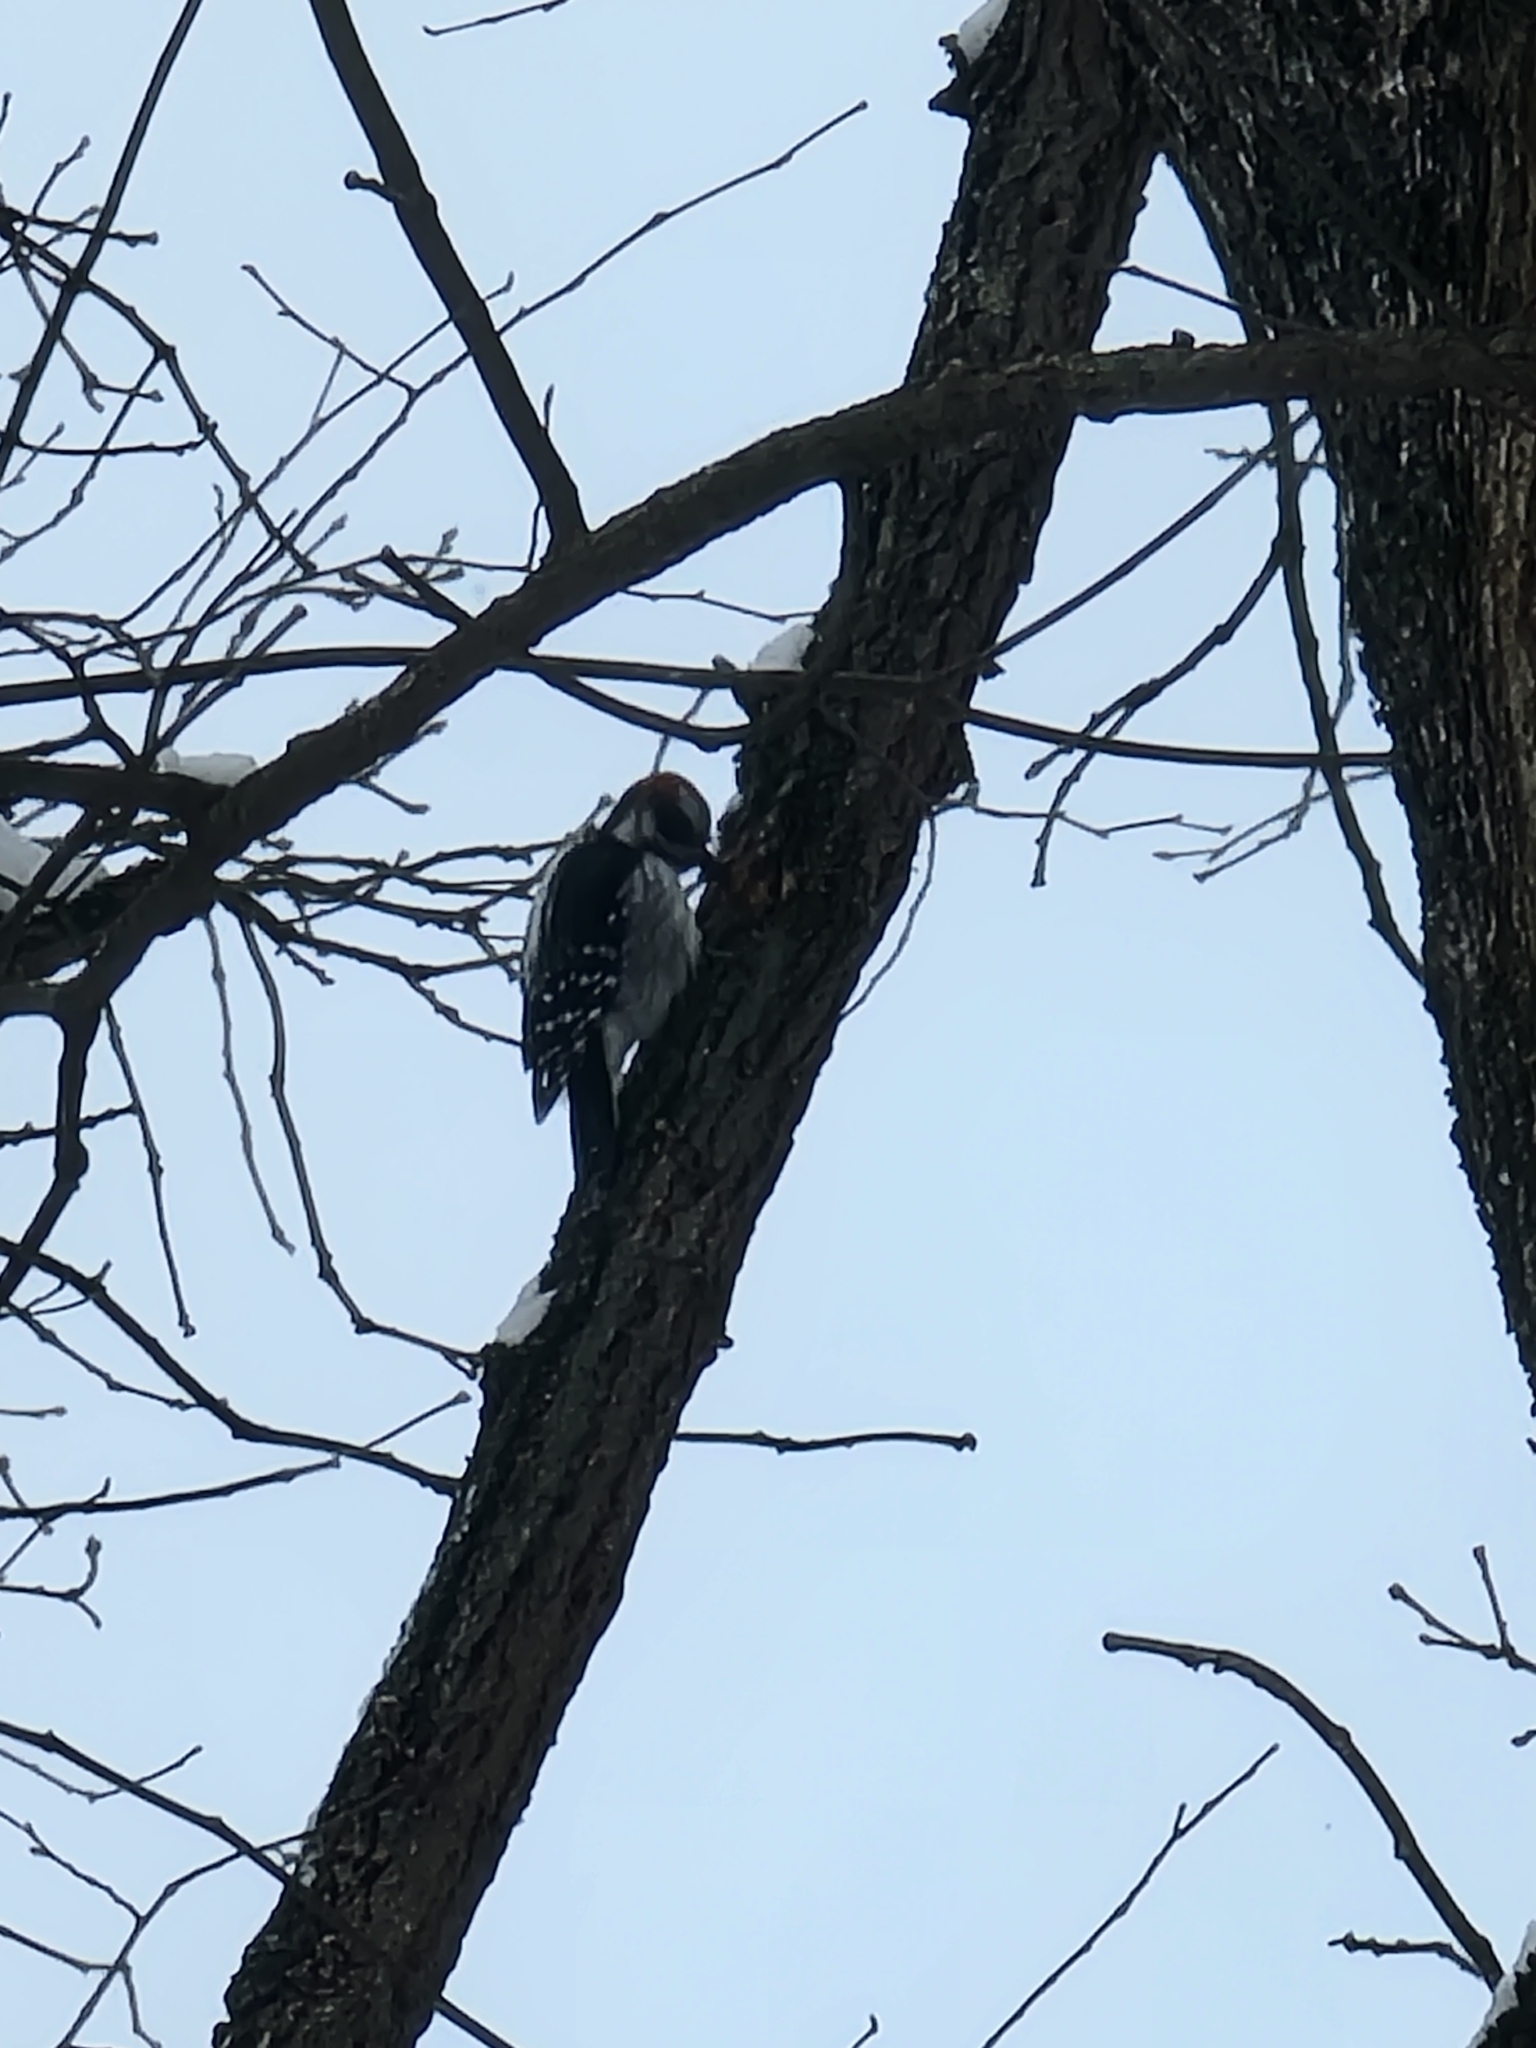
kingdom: Animalia
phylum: Chordata
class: Aves
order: Piciformes
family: Picidae
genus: Dryobates
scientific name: Dryobates pubescens
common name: Downy woodpecker
